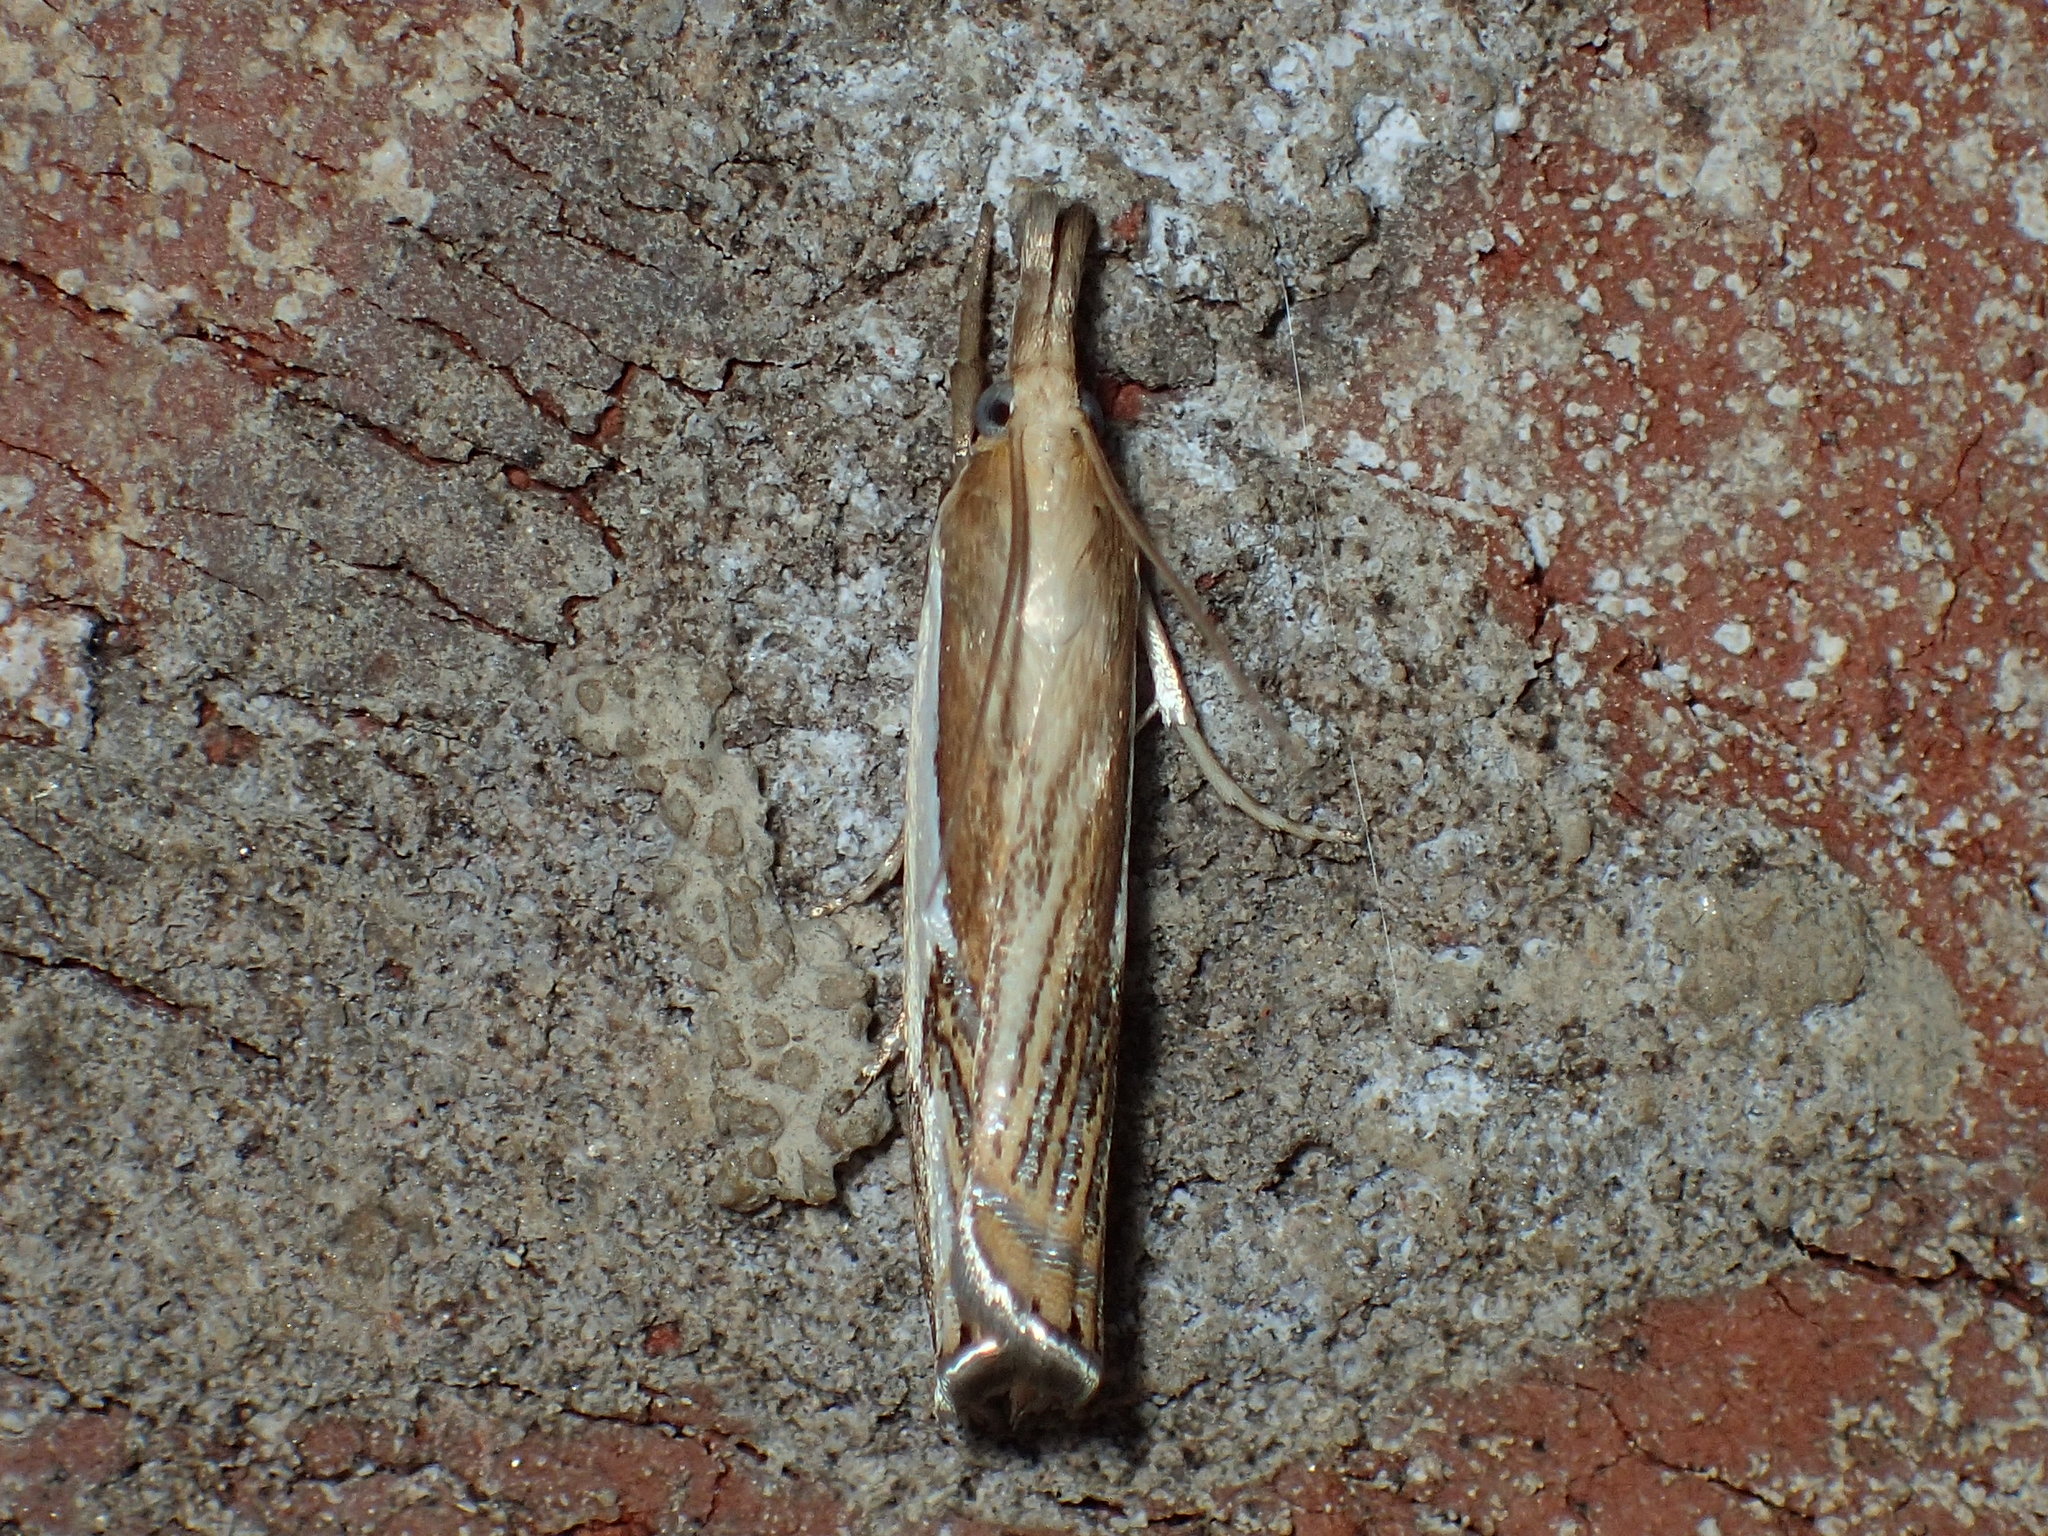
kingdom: Animalia
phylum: Arthropoda
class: Insecta
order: Lepidoptera
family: Crambidae
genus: Crambus
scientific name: Crambus agitatellus
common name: Double-banded grass-veneer
